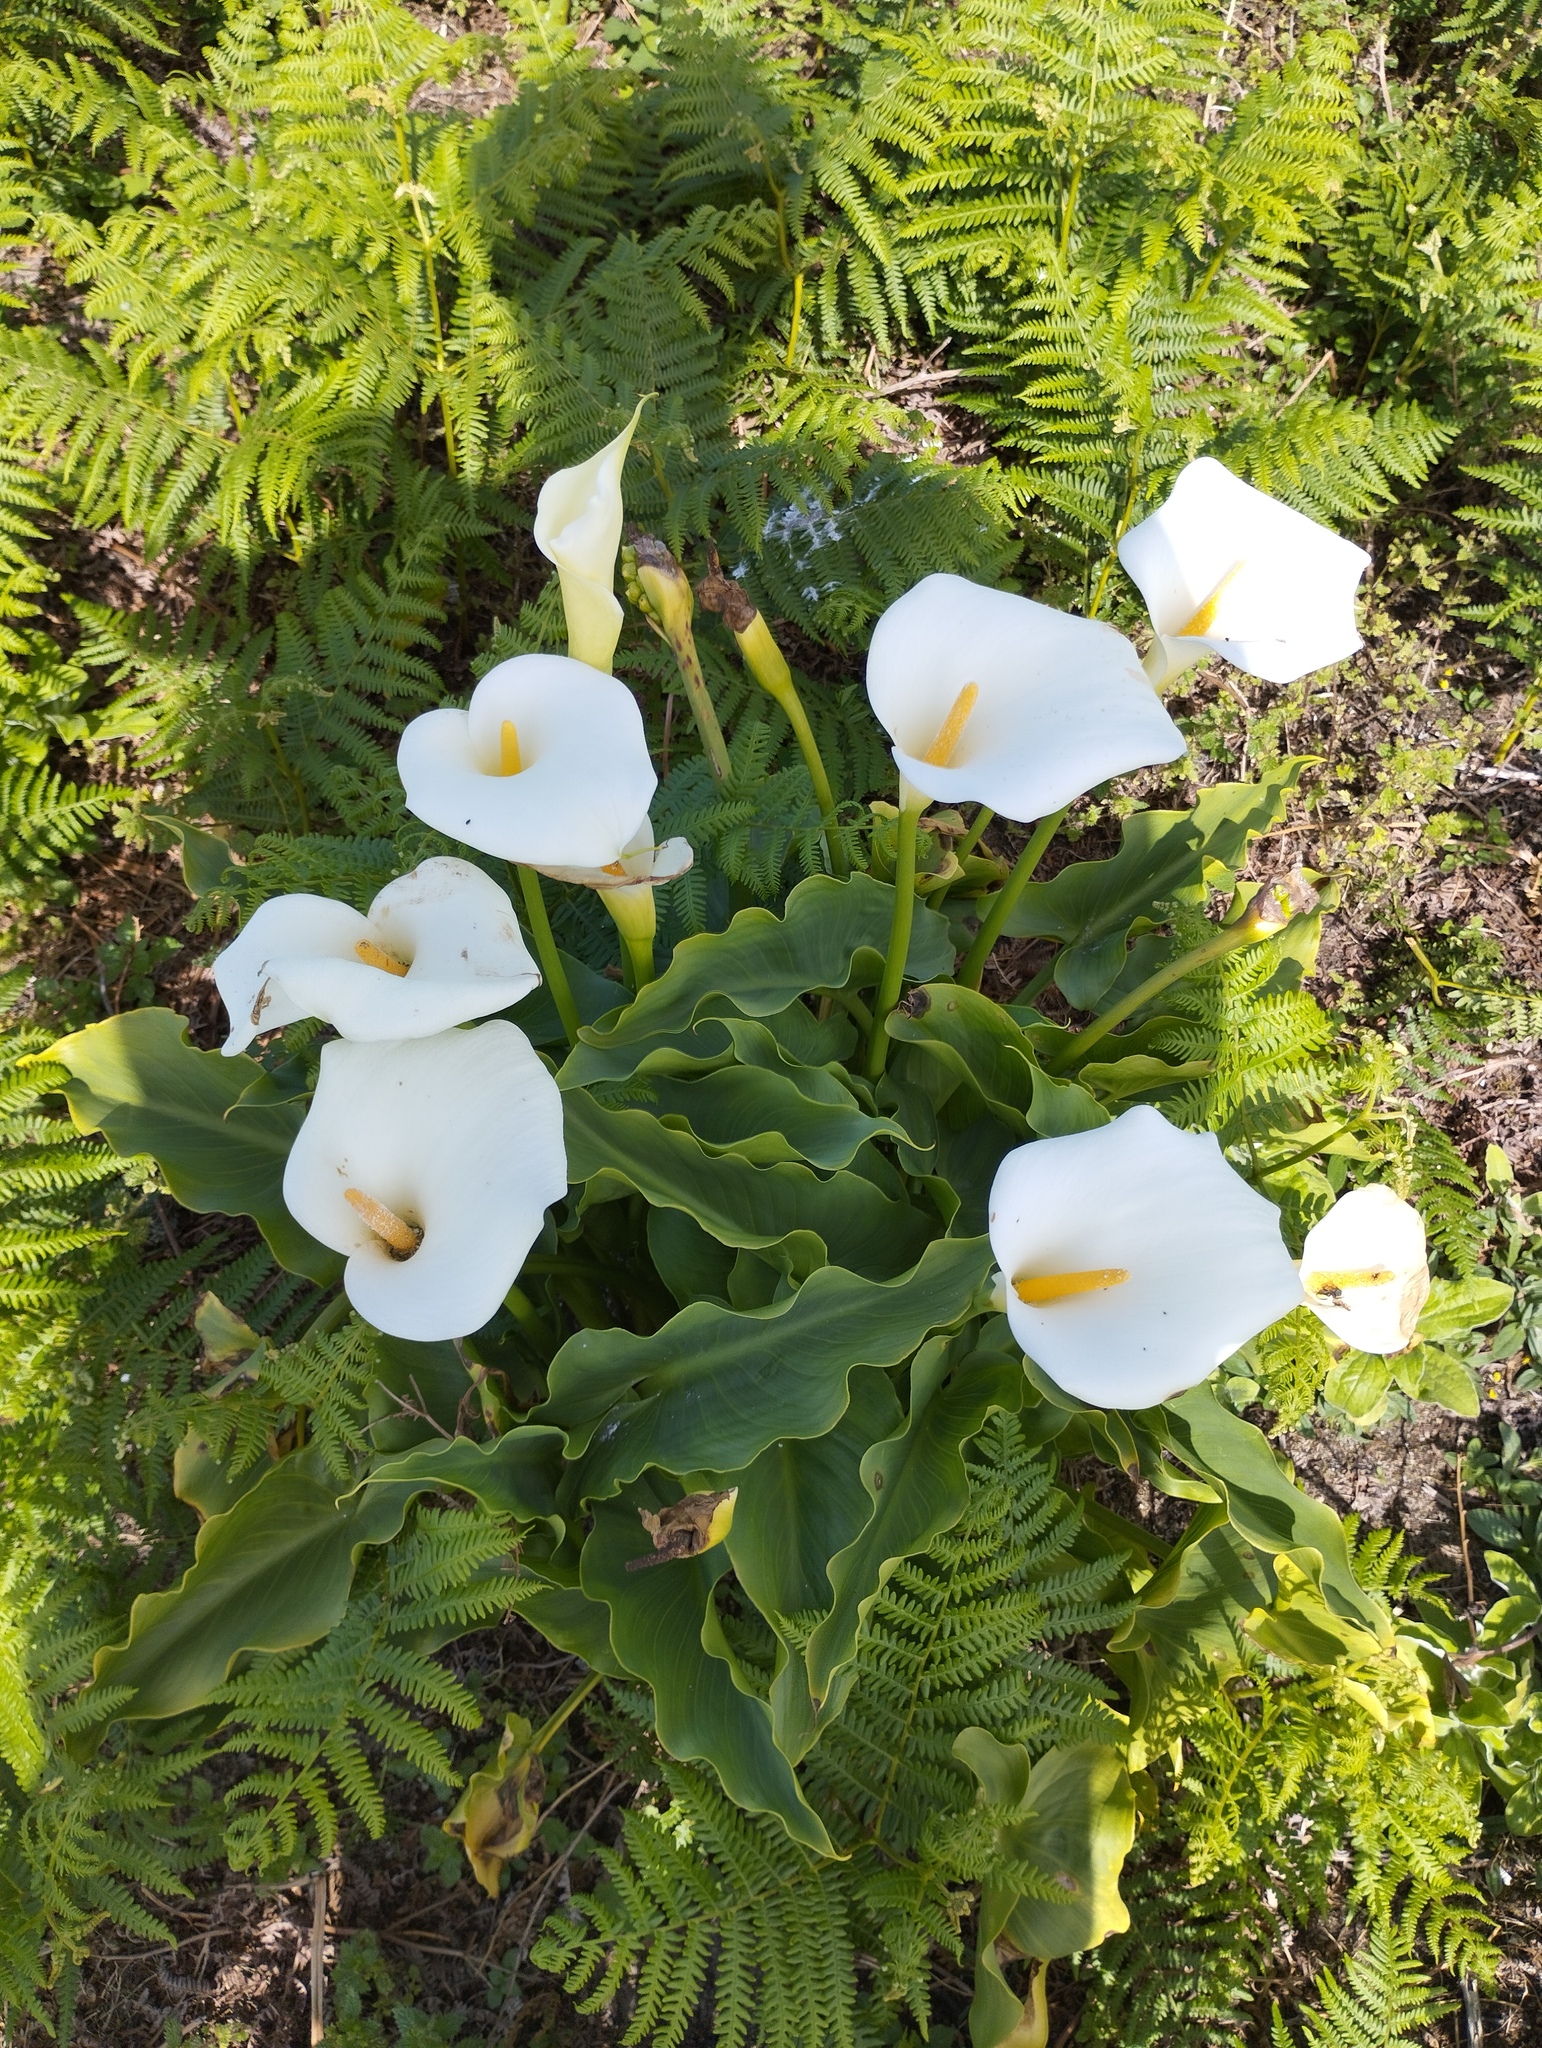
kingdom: Plantae
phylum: Tracheophyta
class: Liliopsida
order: Alismatales
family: Araceae
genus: Zantedeschia
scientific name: Zantedeschia aethiopica
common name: Altar-lily
